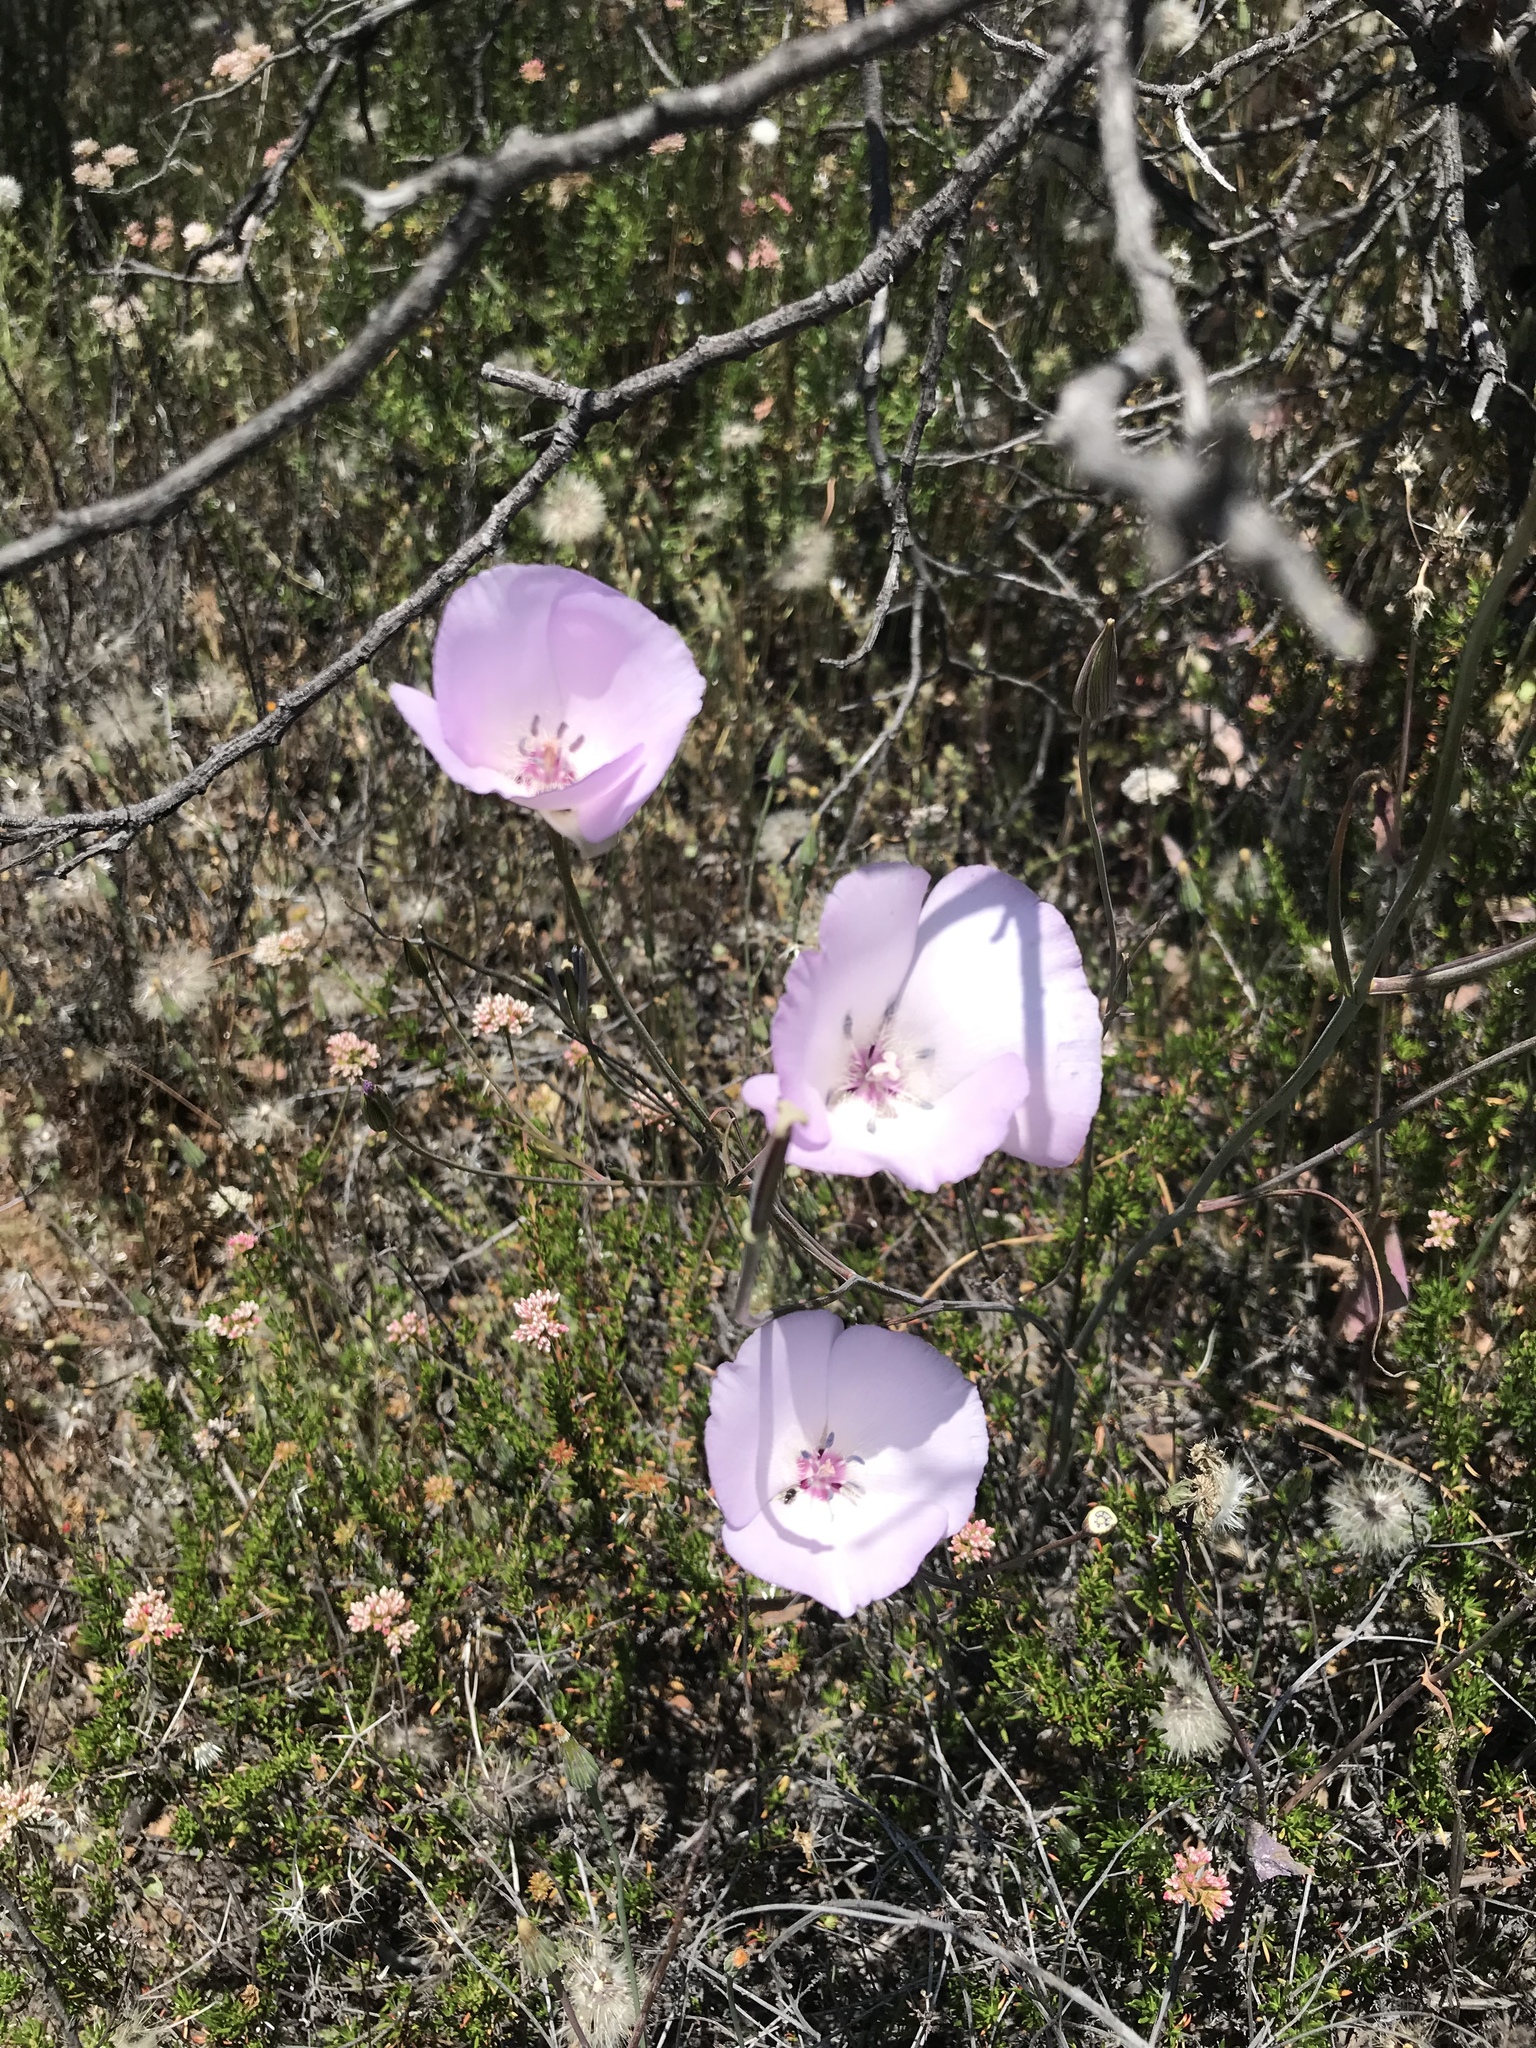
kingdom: Plantae
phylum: Tracheophyta
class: Liliopsida
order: Liliales
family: Liliaceae
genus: Calochortus
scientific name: Calochortus splendens
